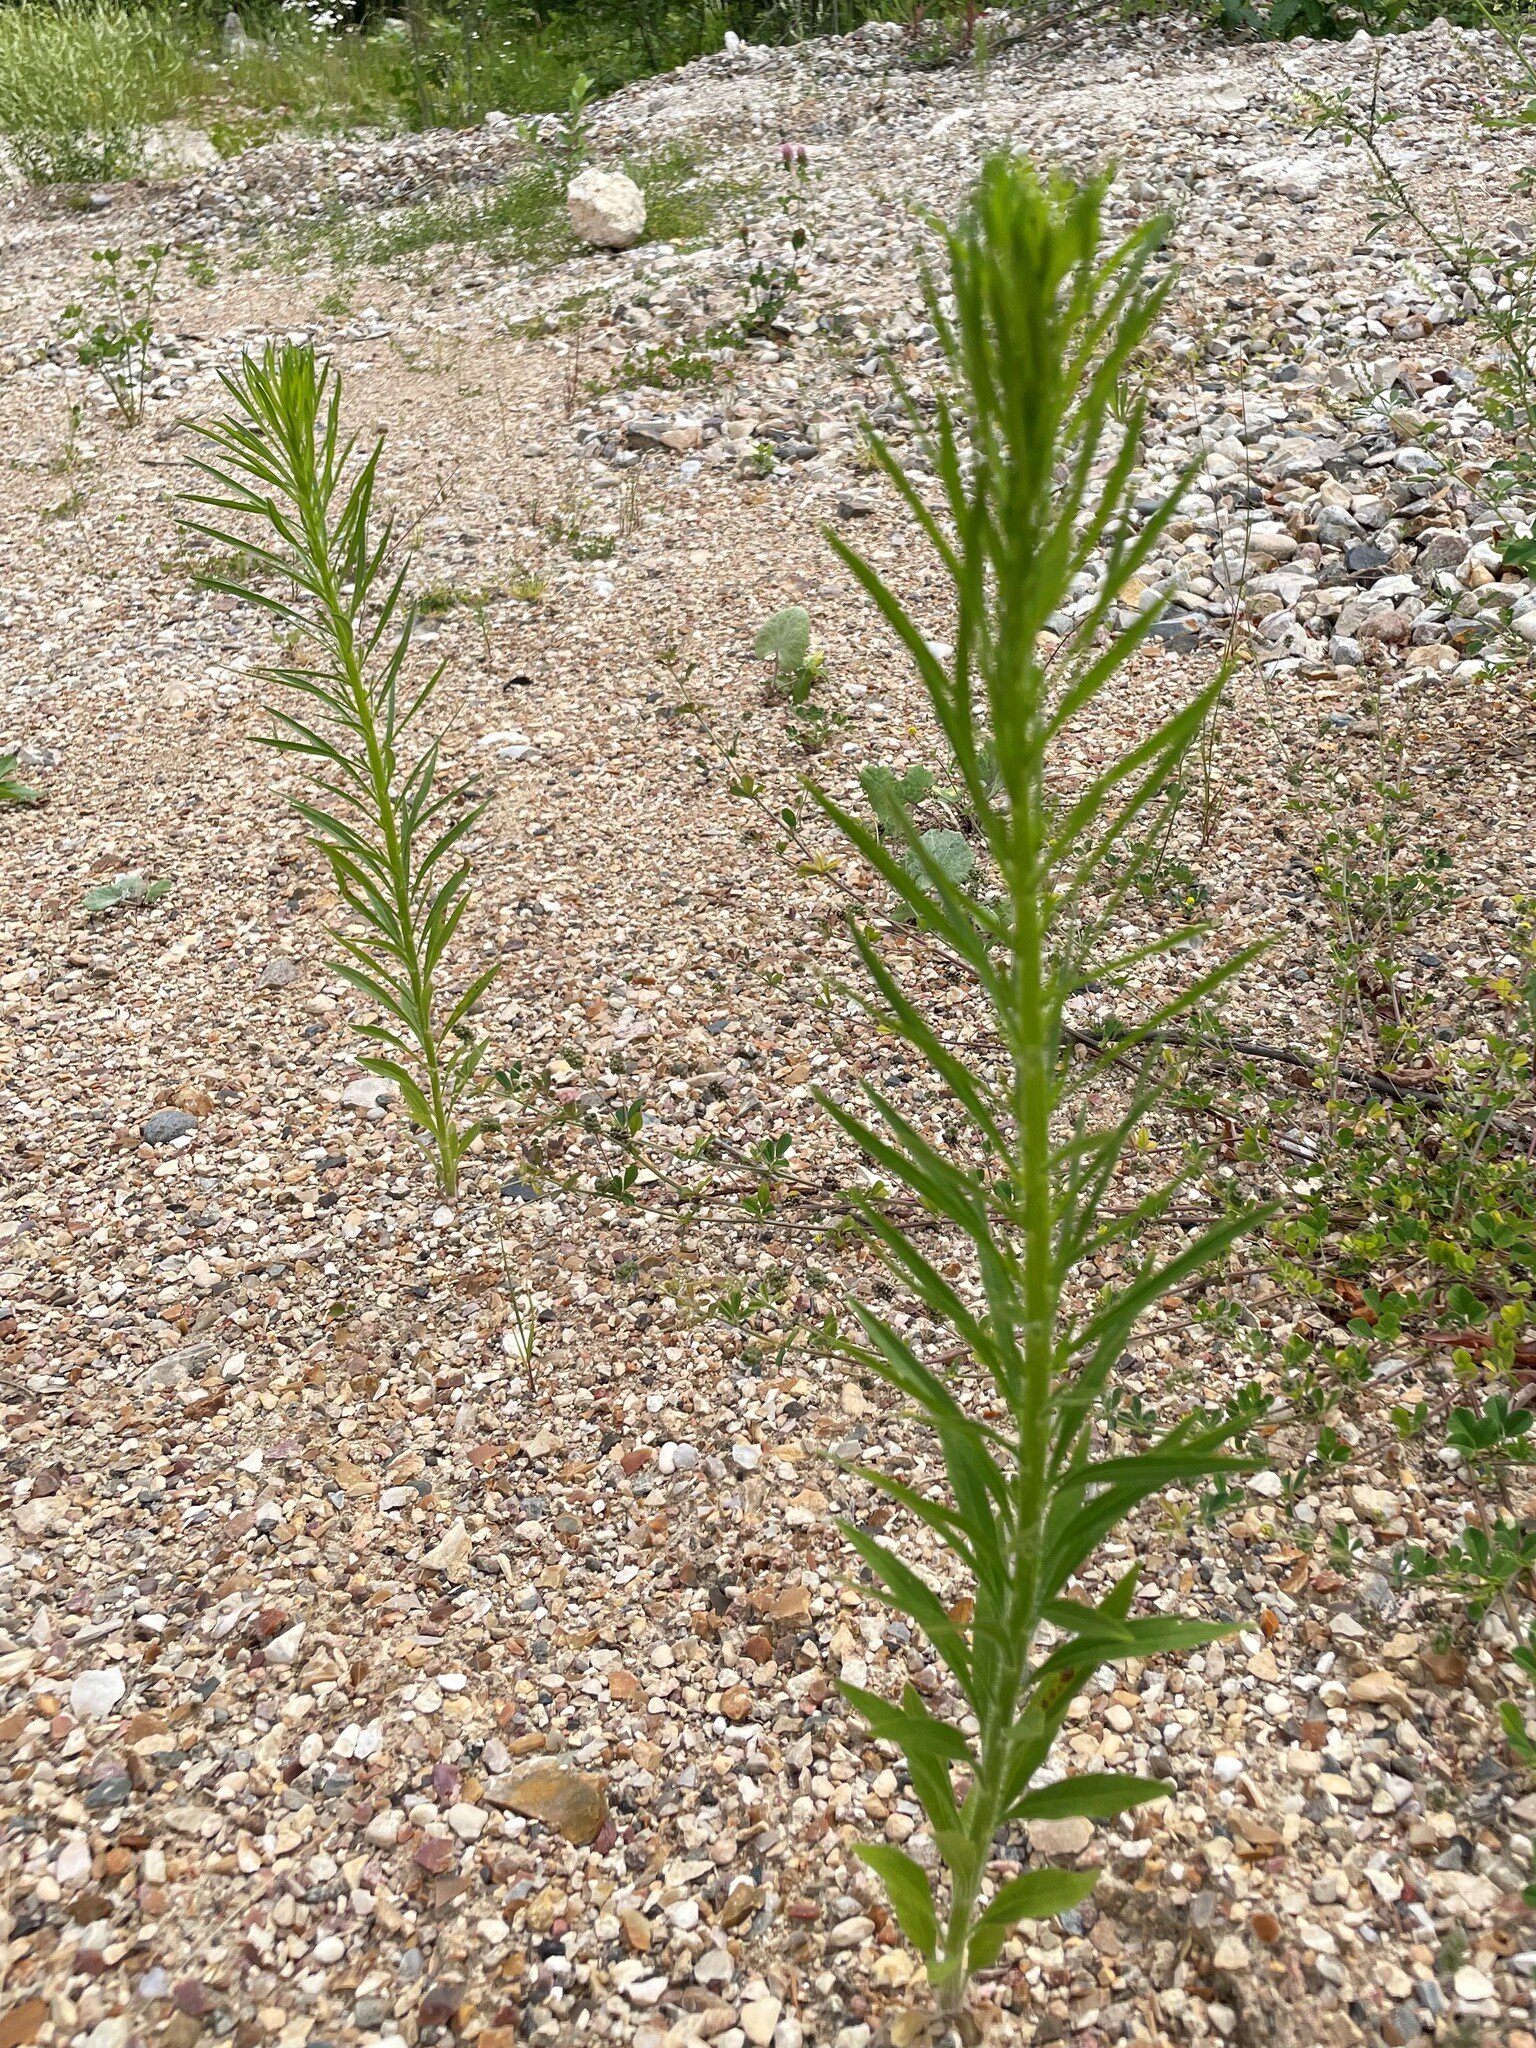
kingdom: Plantae
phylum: Tracheophyta
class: Magnoliopsida
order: Asterales
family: Asteraceae
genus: Erigeron
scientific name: Erigeron canadensis
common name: Canadian fleabane
